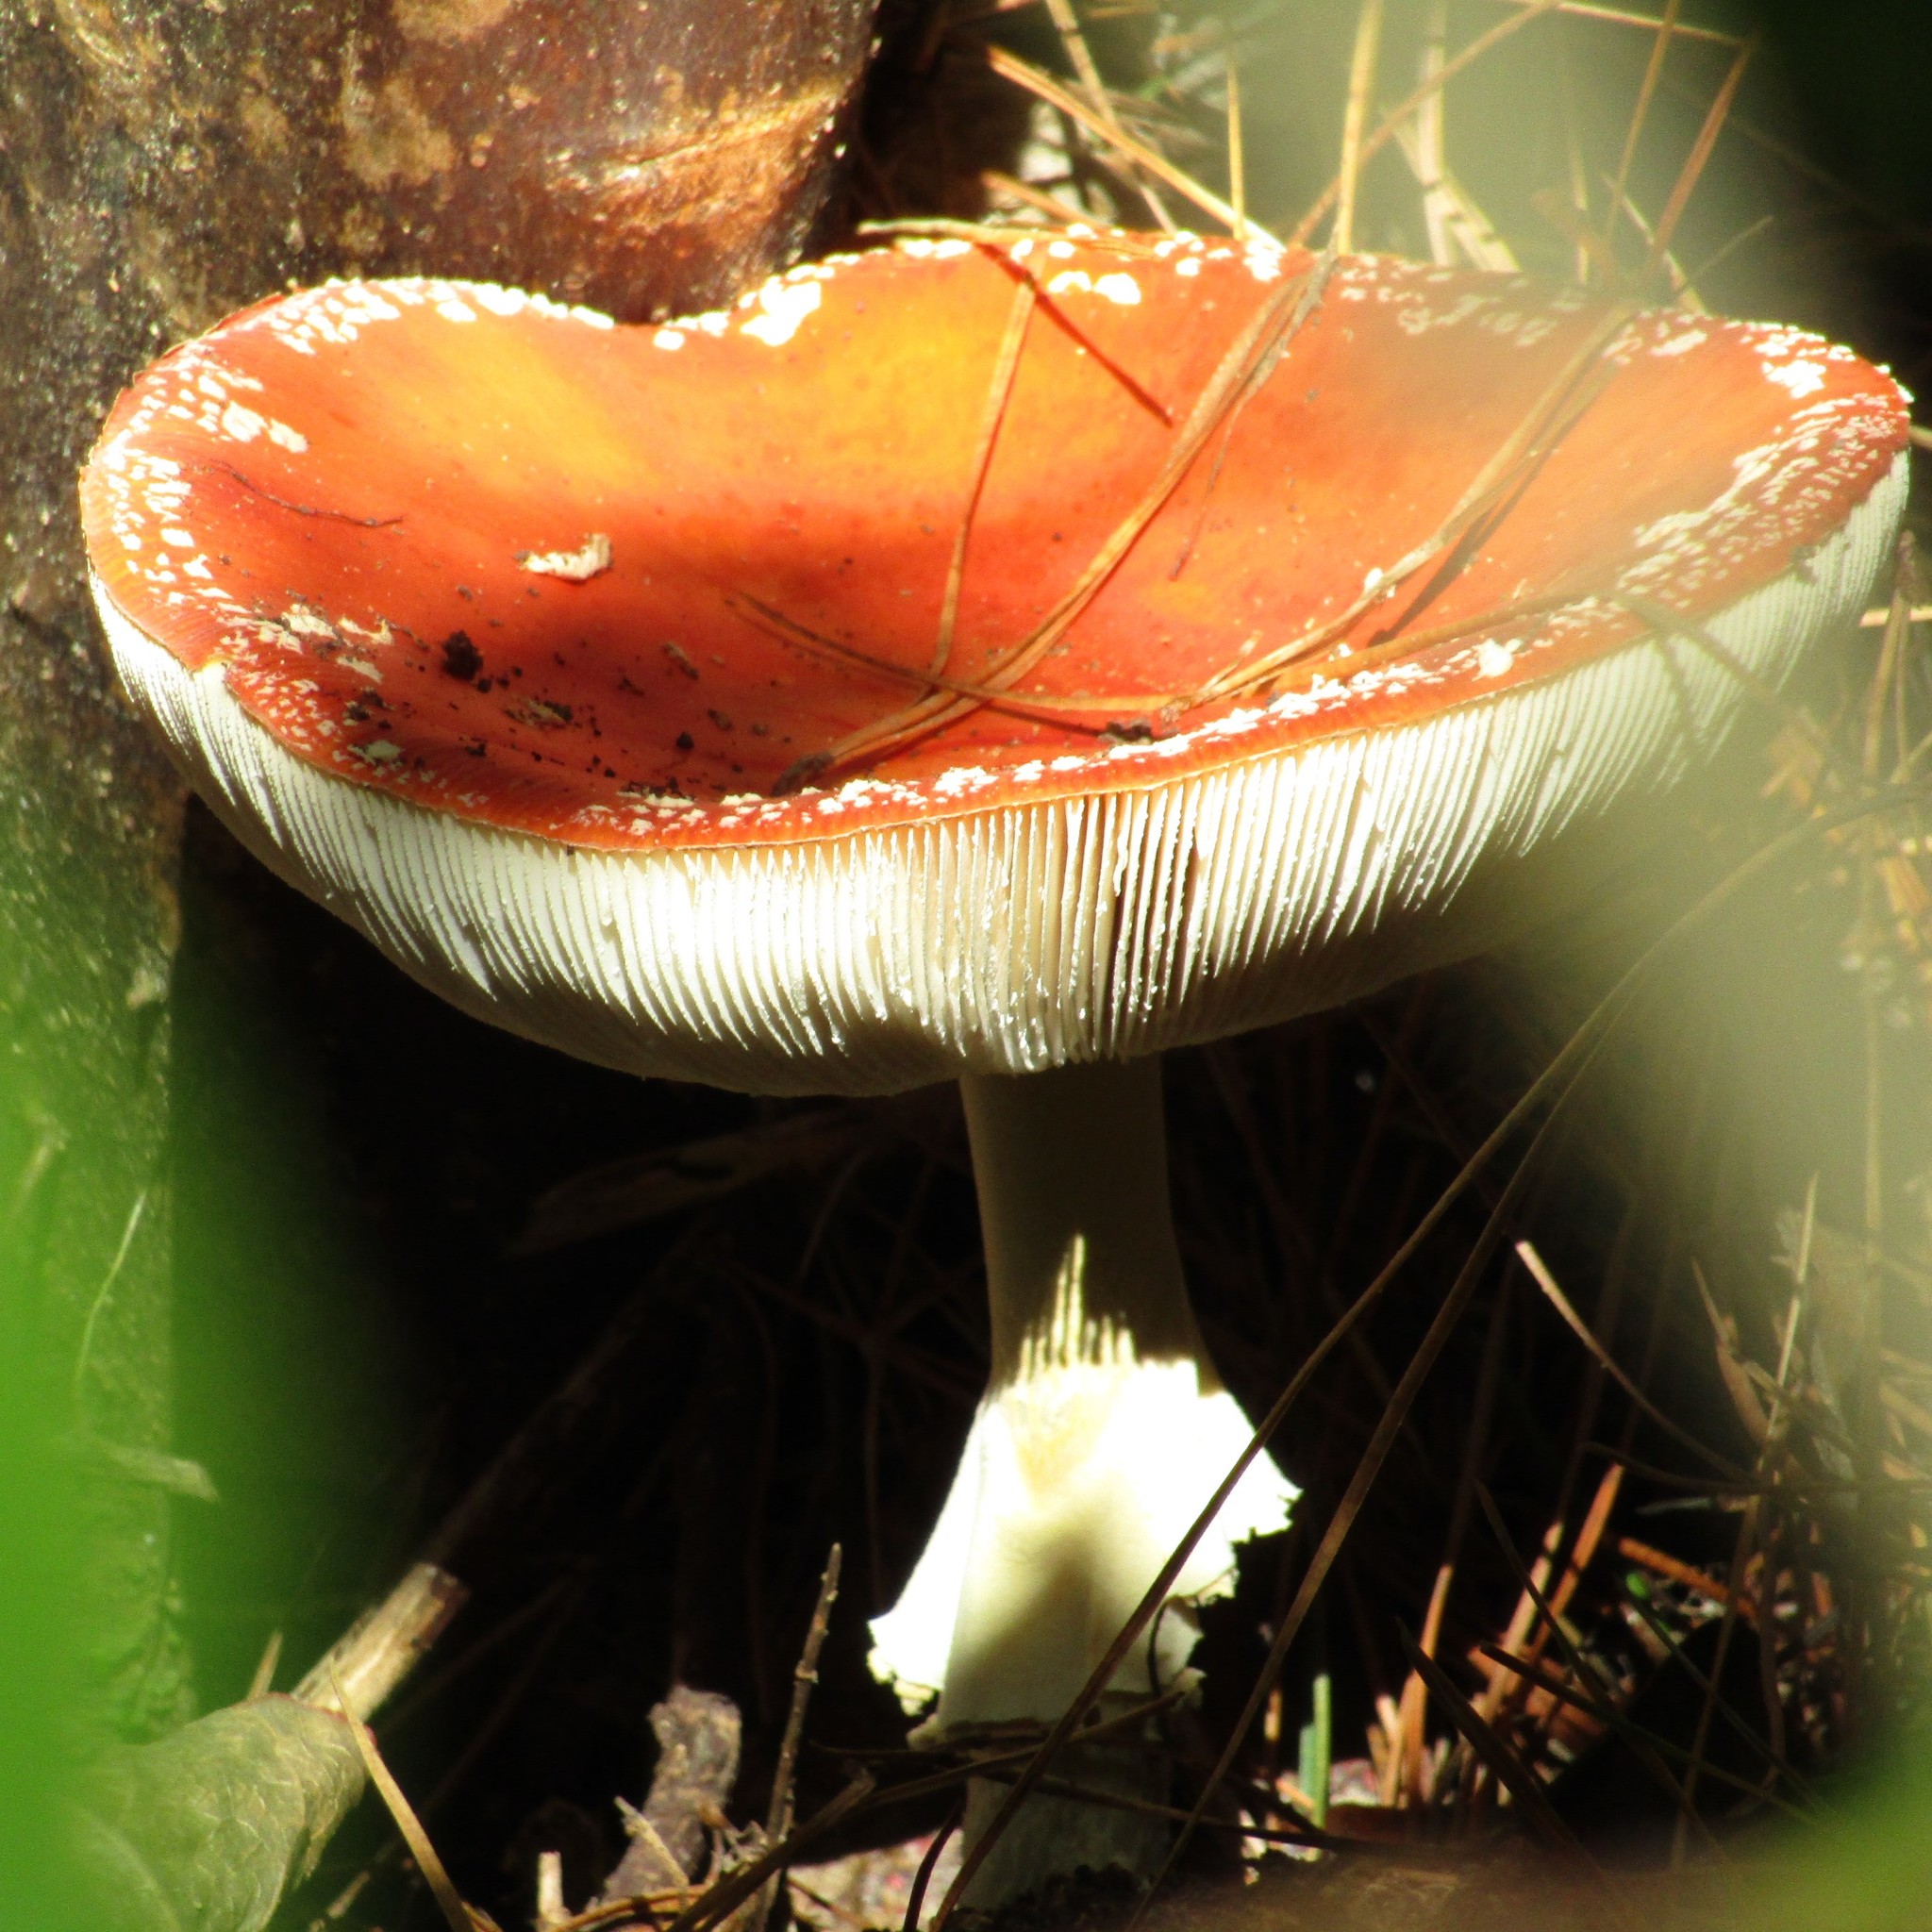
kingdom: Fungi
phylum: Basidiomycota
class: Agaricomycetes
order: Agaricales
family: Amanitaceae
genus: Amanita
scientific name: Amanita muscaria
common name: Fly agaric
